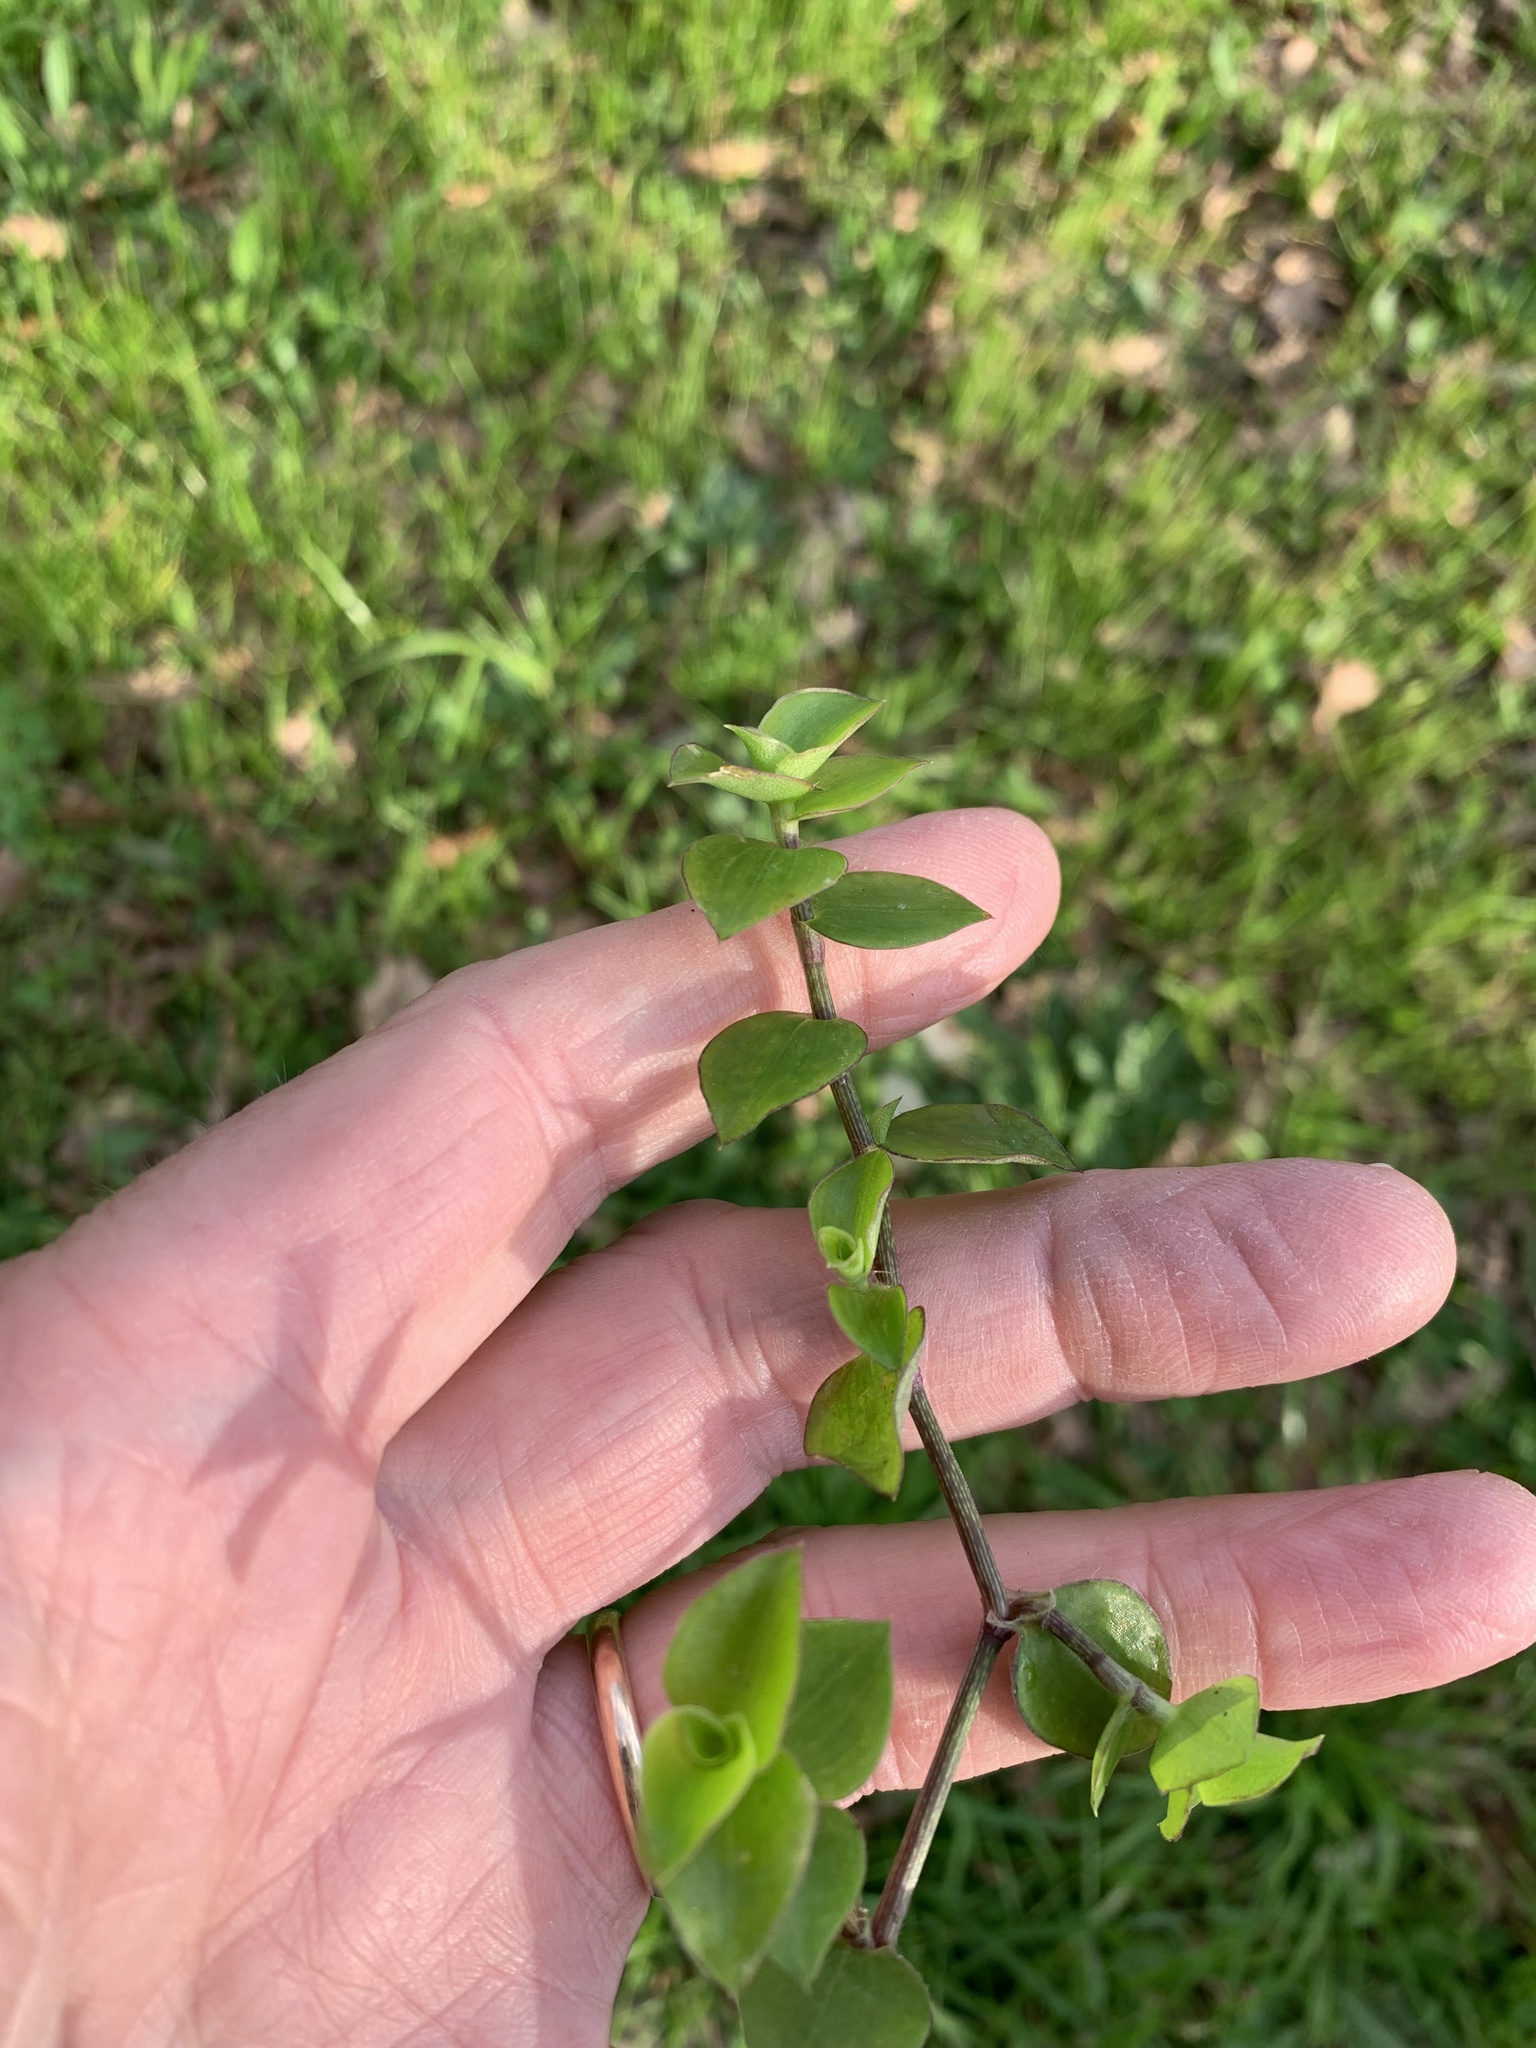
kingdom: Plantae
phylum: Tracheophyta
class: Liliopsida
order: Commelinales
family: Commelinaceae
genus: Callisia
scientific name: Callisia repens
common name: Creeping inchplant
